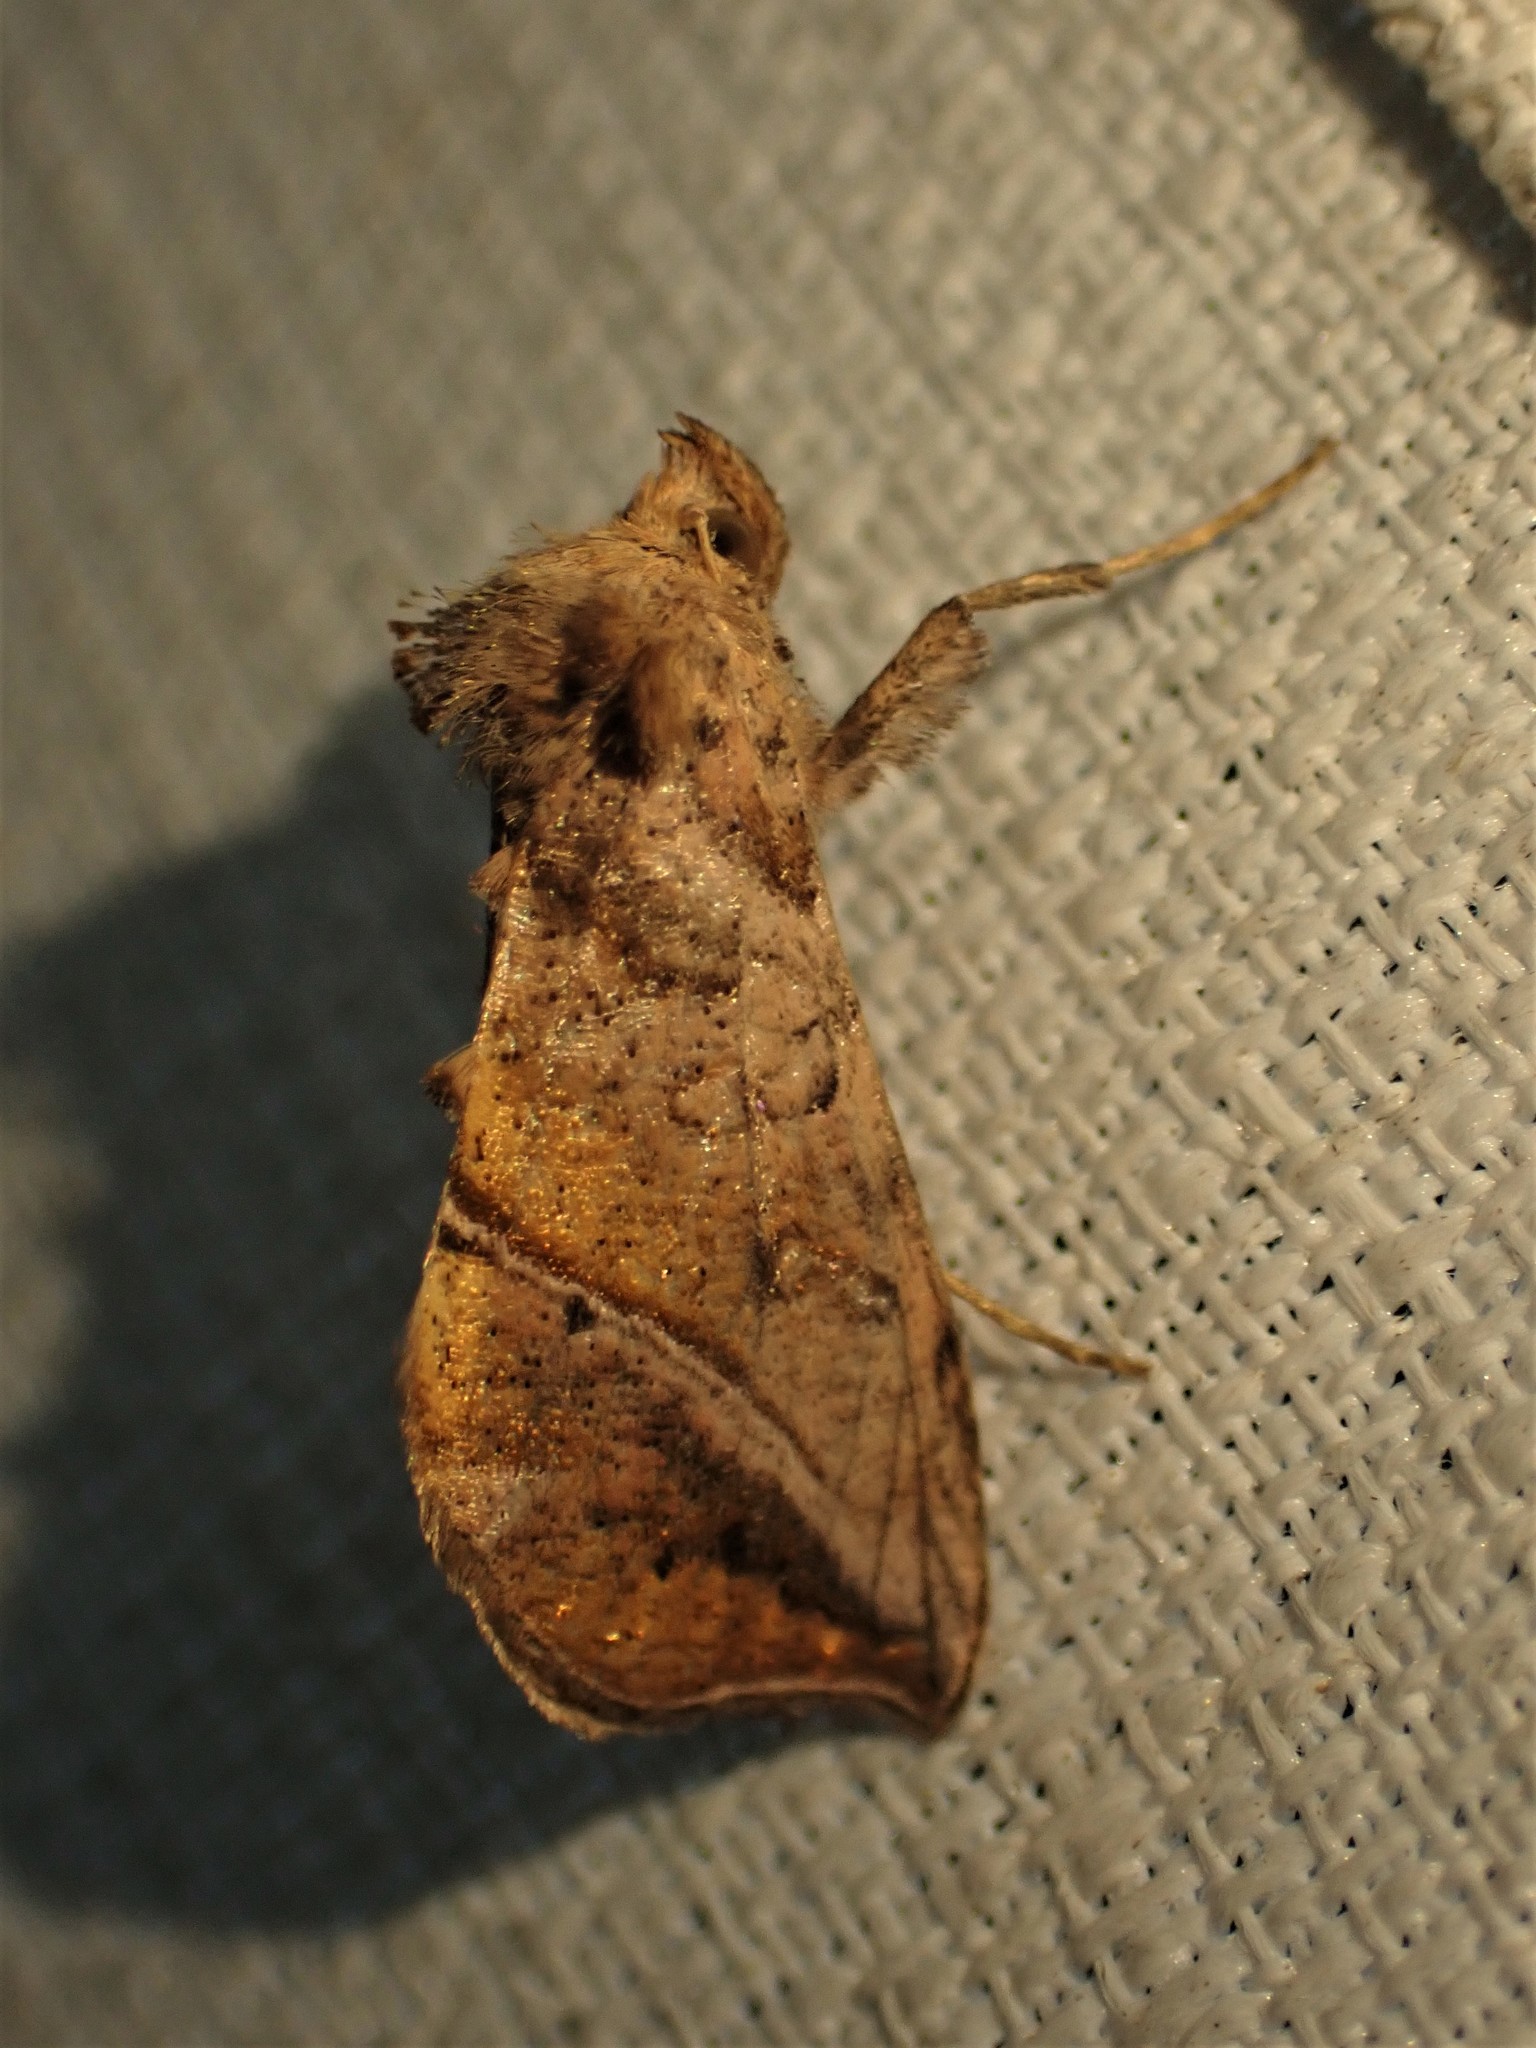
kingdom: Animalia
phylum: Arthropoda
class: Insecta
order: Lepidoptera
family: Noctuidae
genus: Pseudeva
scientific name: Pseudeva purpurigera
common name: Straight-lined looper moth
